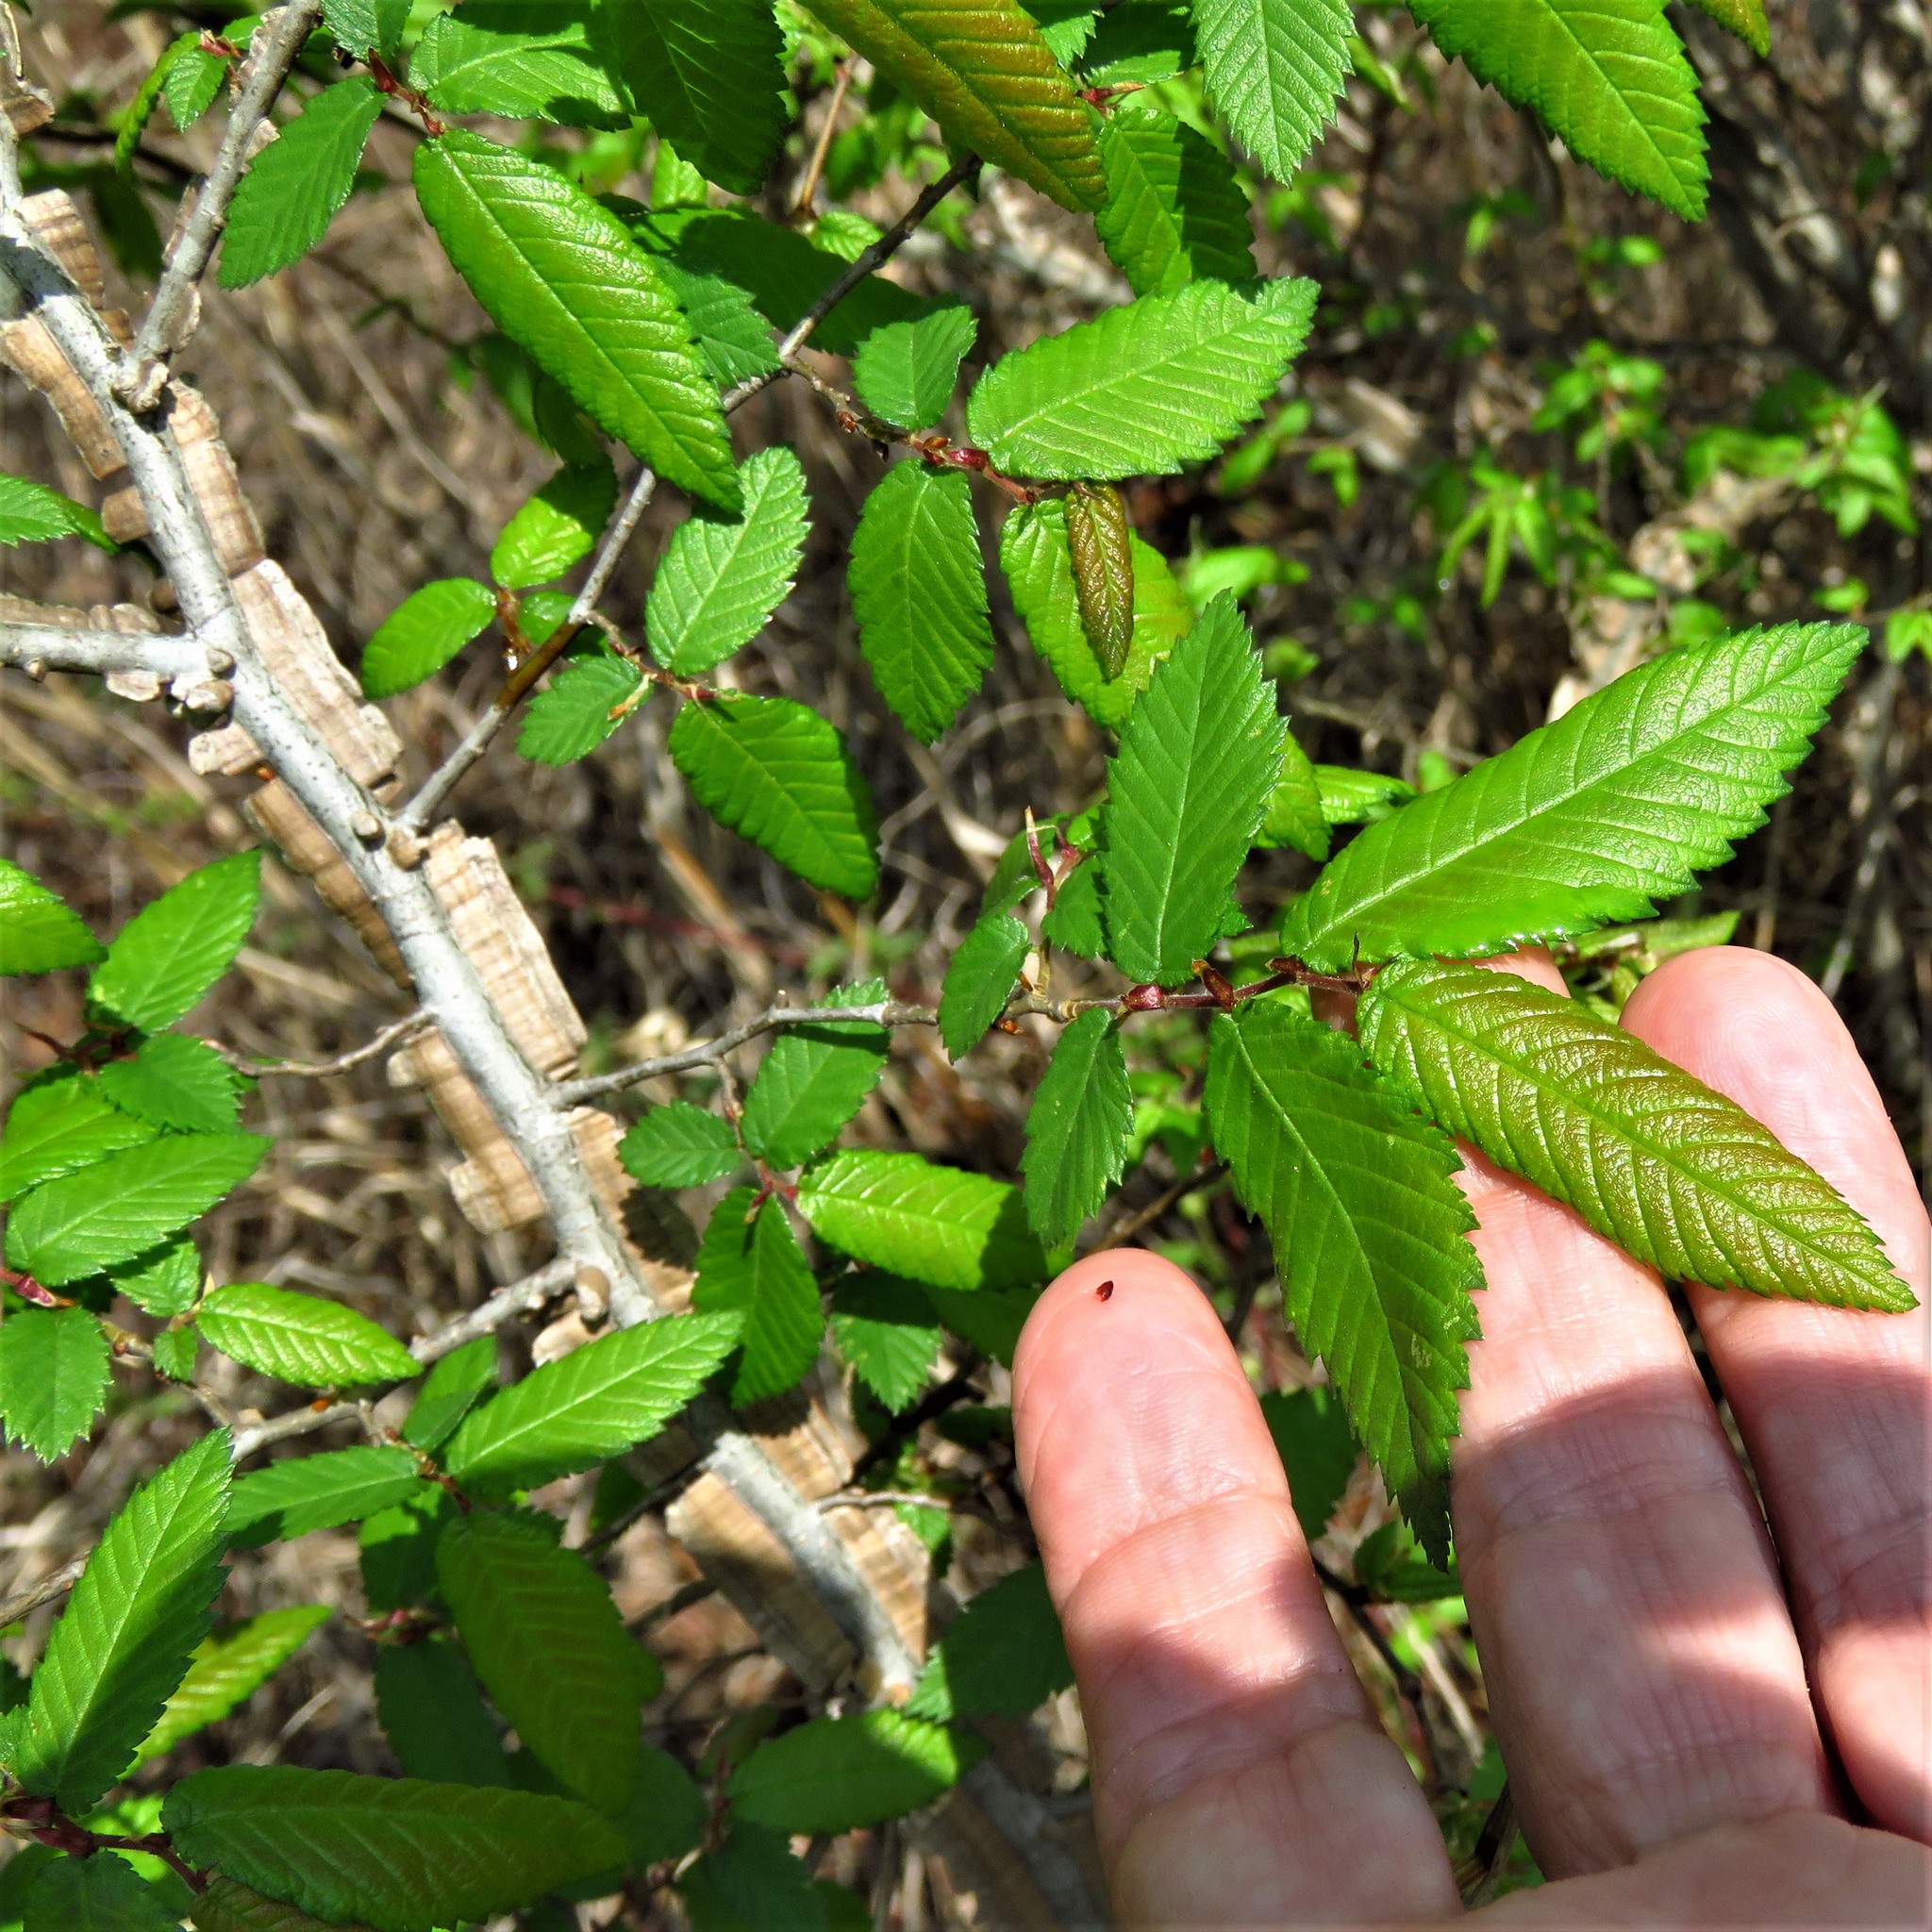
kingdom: Plantae
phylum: Tracheophyta
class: Magnoliopsida
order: Rosales
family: Ulmaceae
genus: Ulmus
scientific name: Ulmus alata
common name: Winged elm
